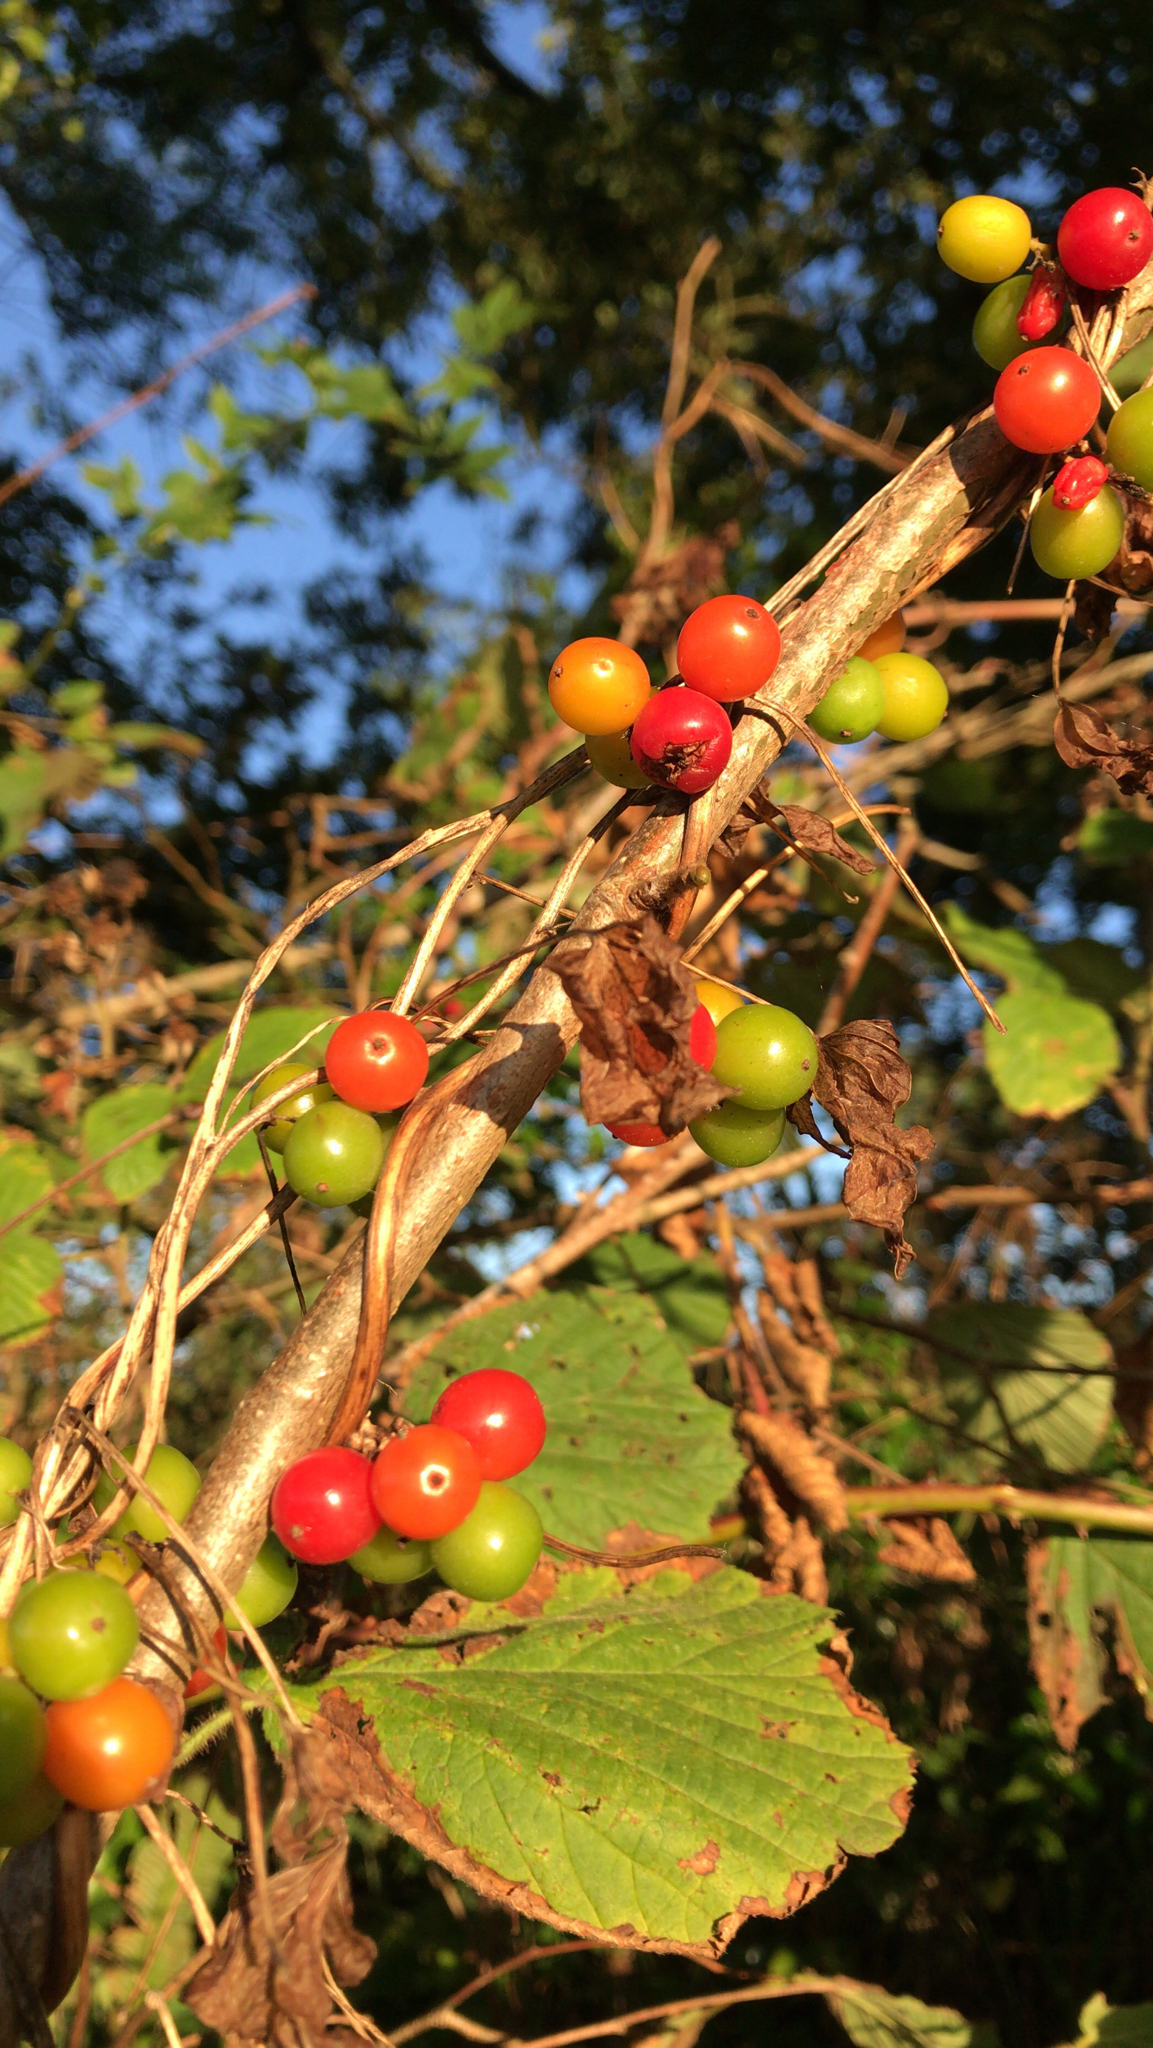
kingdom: Plantae
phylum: Tracheophyta
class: Liliopsida
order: Dioscoreales
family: Dioscoreaceae
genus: Dioscorea
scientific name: Dioscorea communis
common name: Black-bindweed
